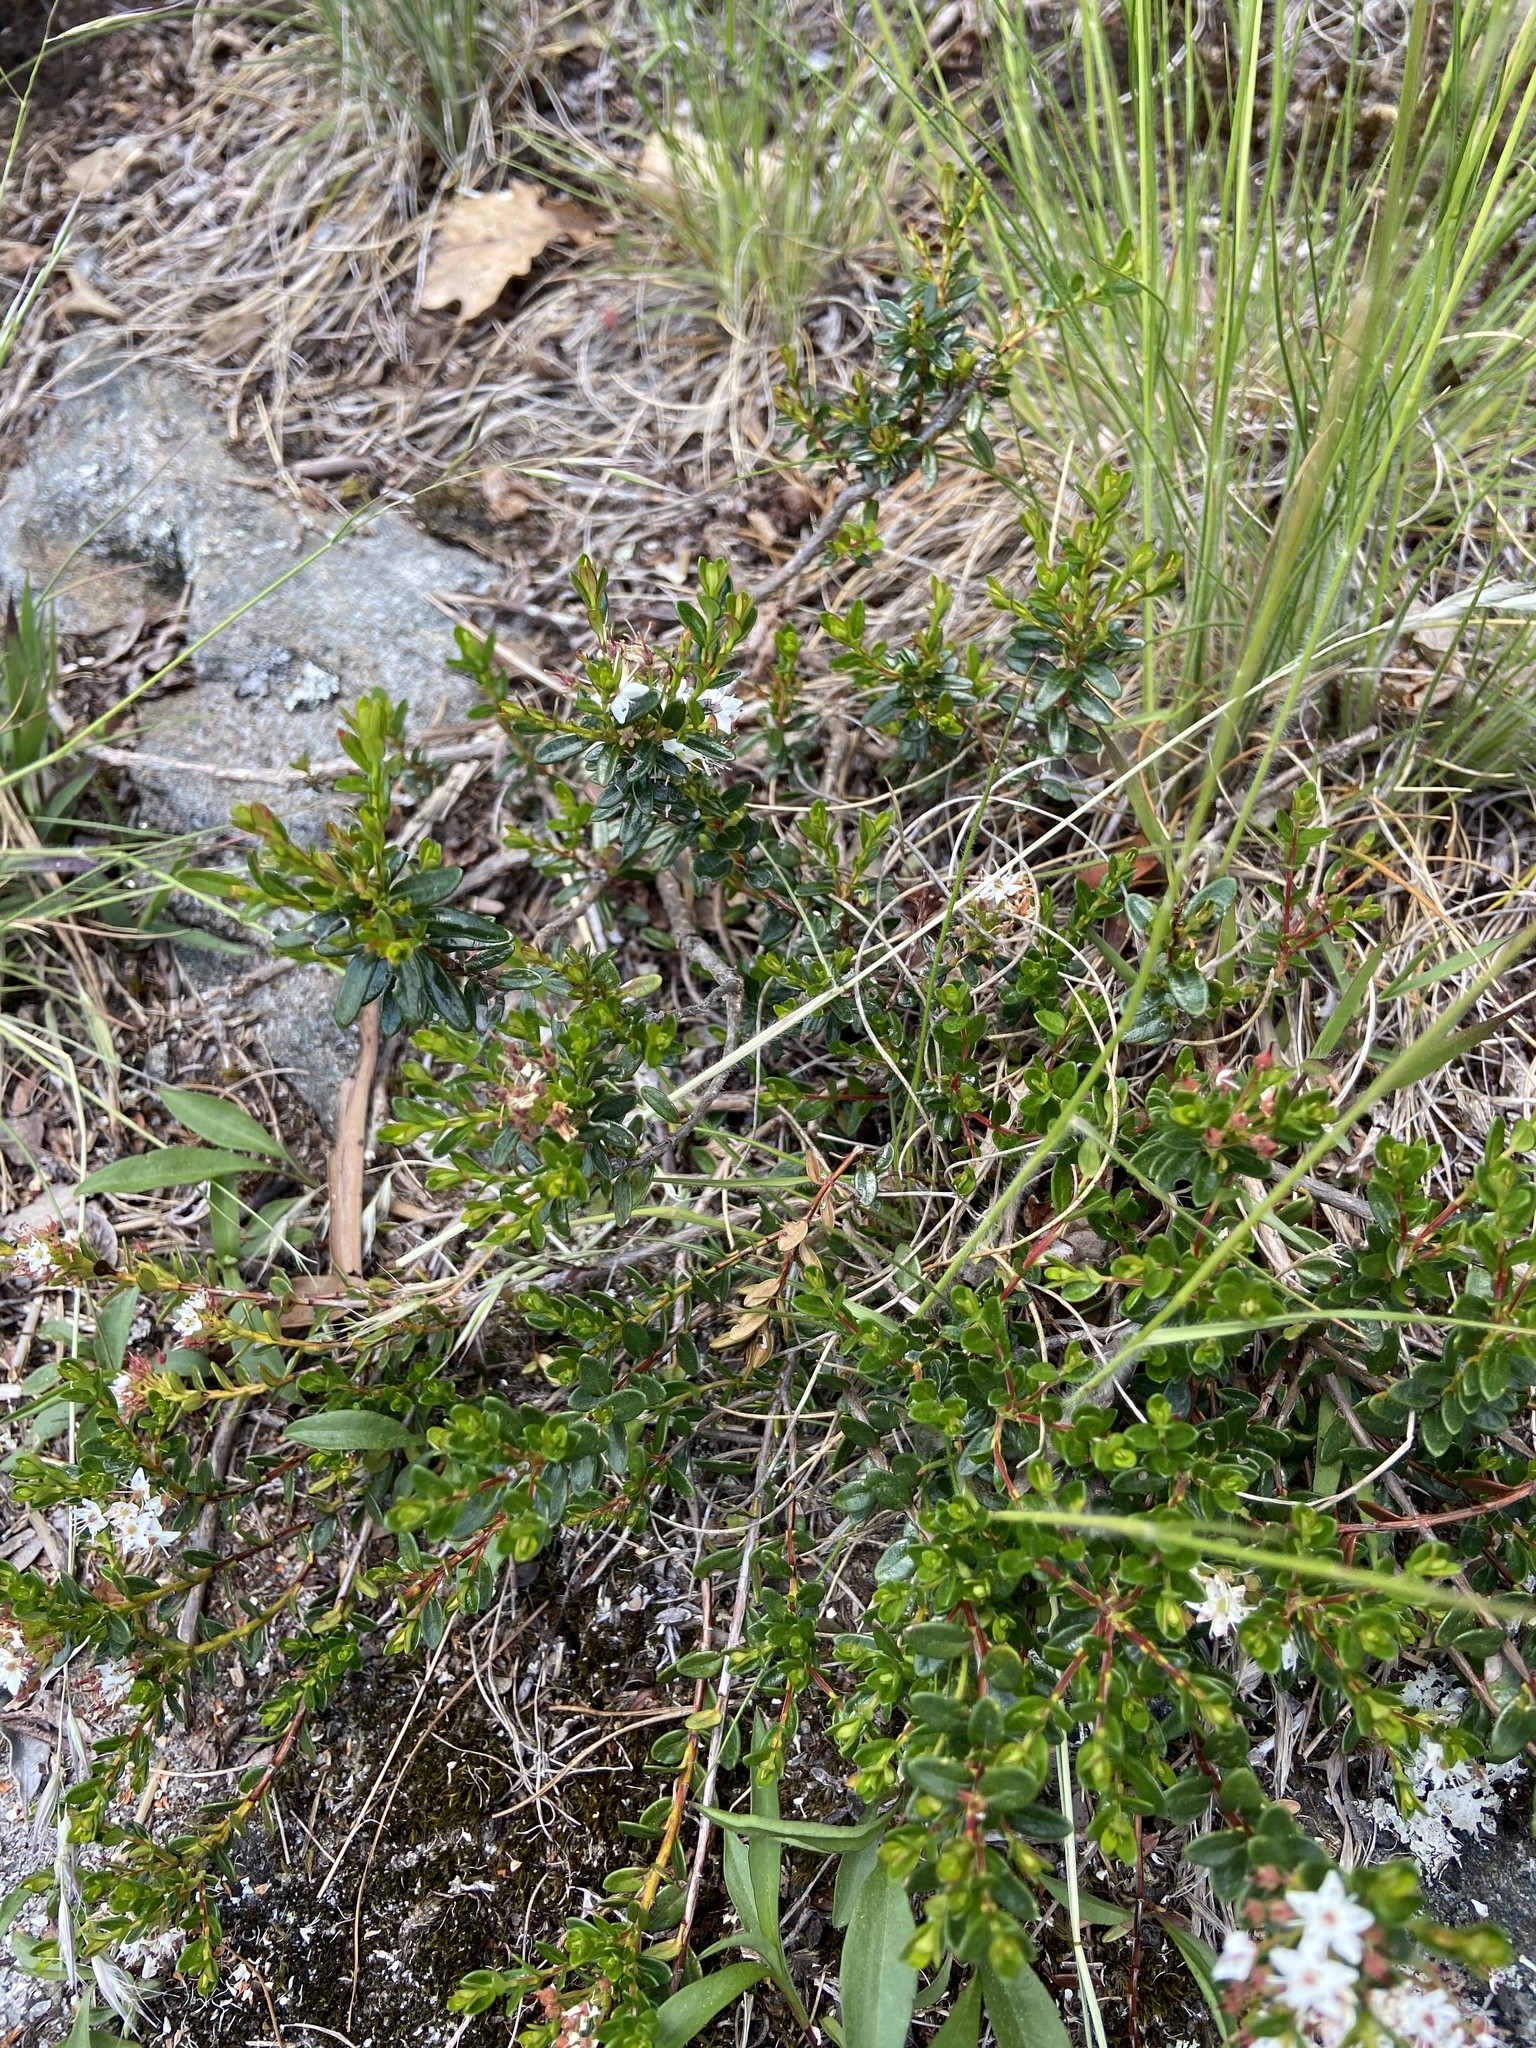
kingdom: Plantae
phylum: Tracheophyta
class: Magnoliopsida
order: Ericales
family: Ericaceae
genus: Kalmia
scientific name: Kalmia buxifolia
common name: Sandmyrtle
